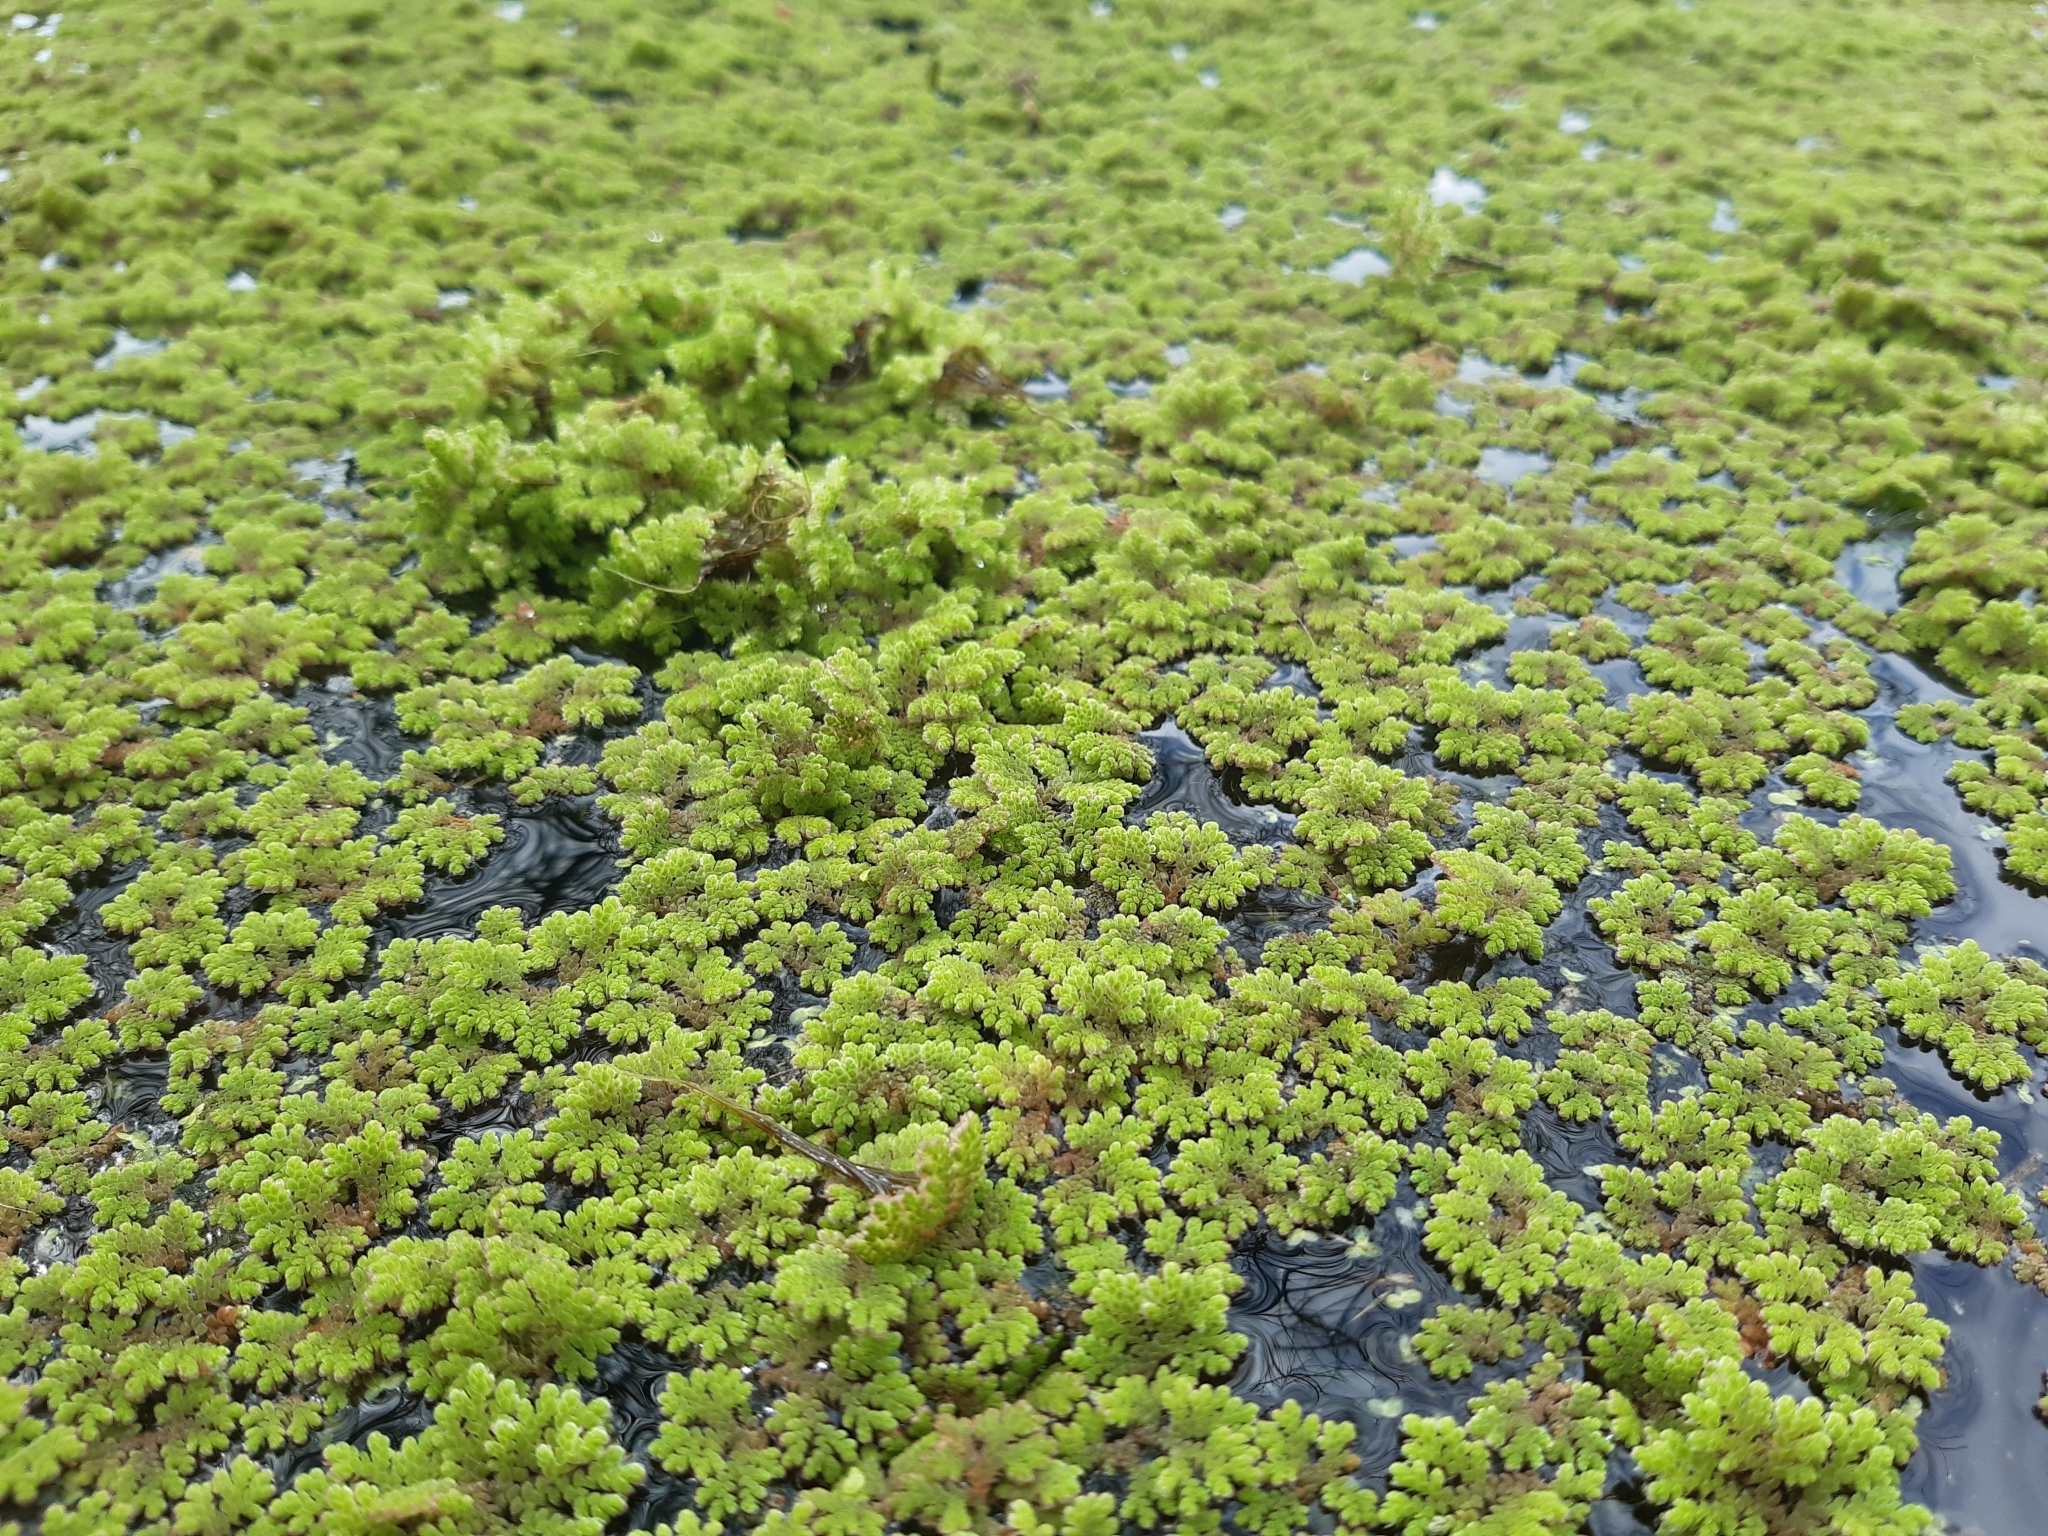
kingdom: Plantae
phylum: Tracheophyta
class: Polypodiopsida
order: Salviniales
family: Salviniaceae
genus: Azolla
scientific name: Azolla filiculoides
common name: Water fern
